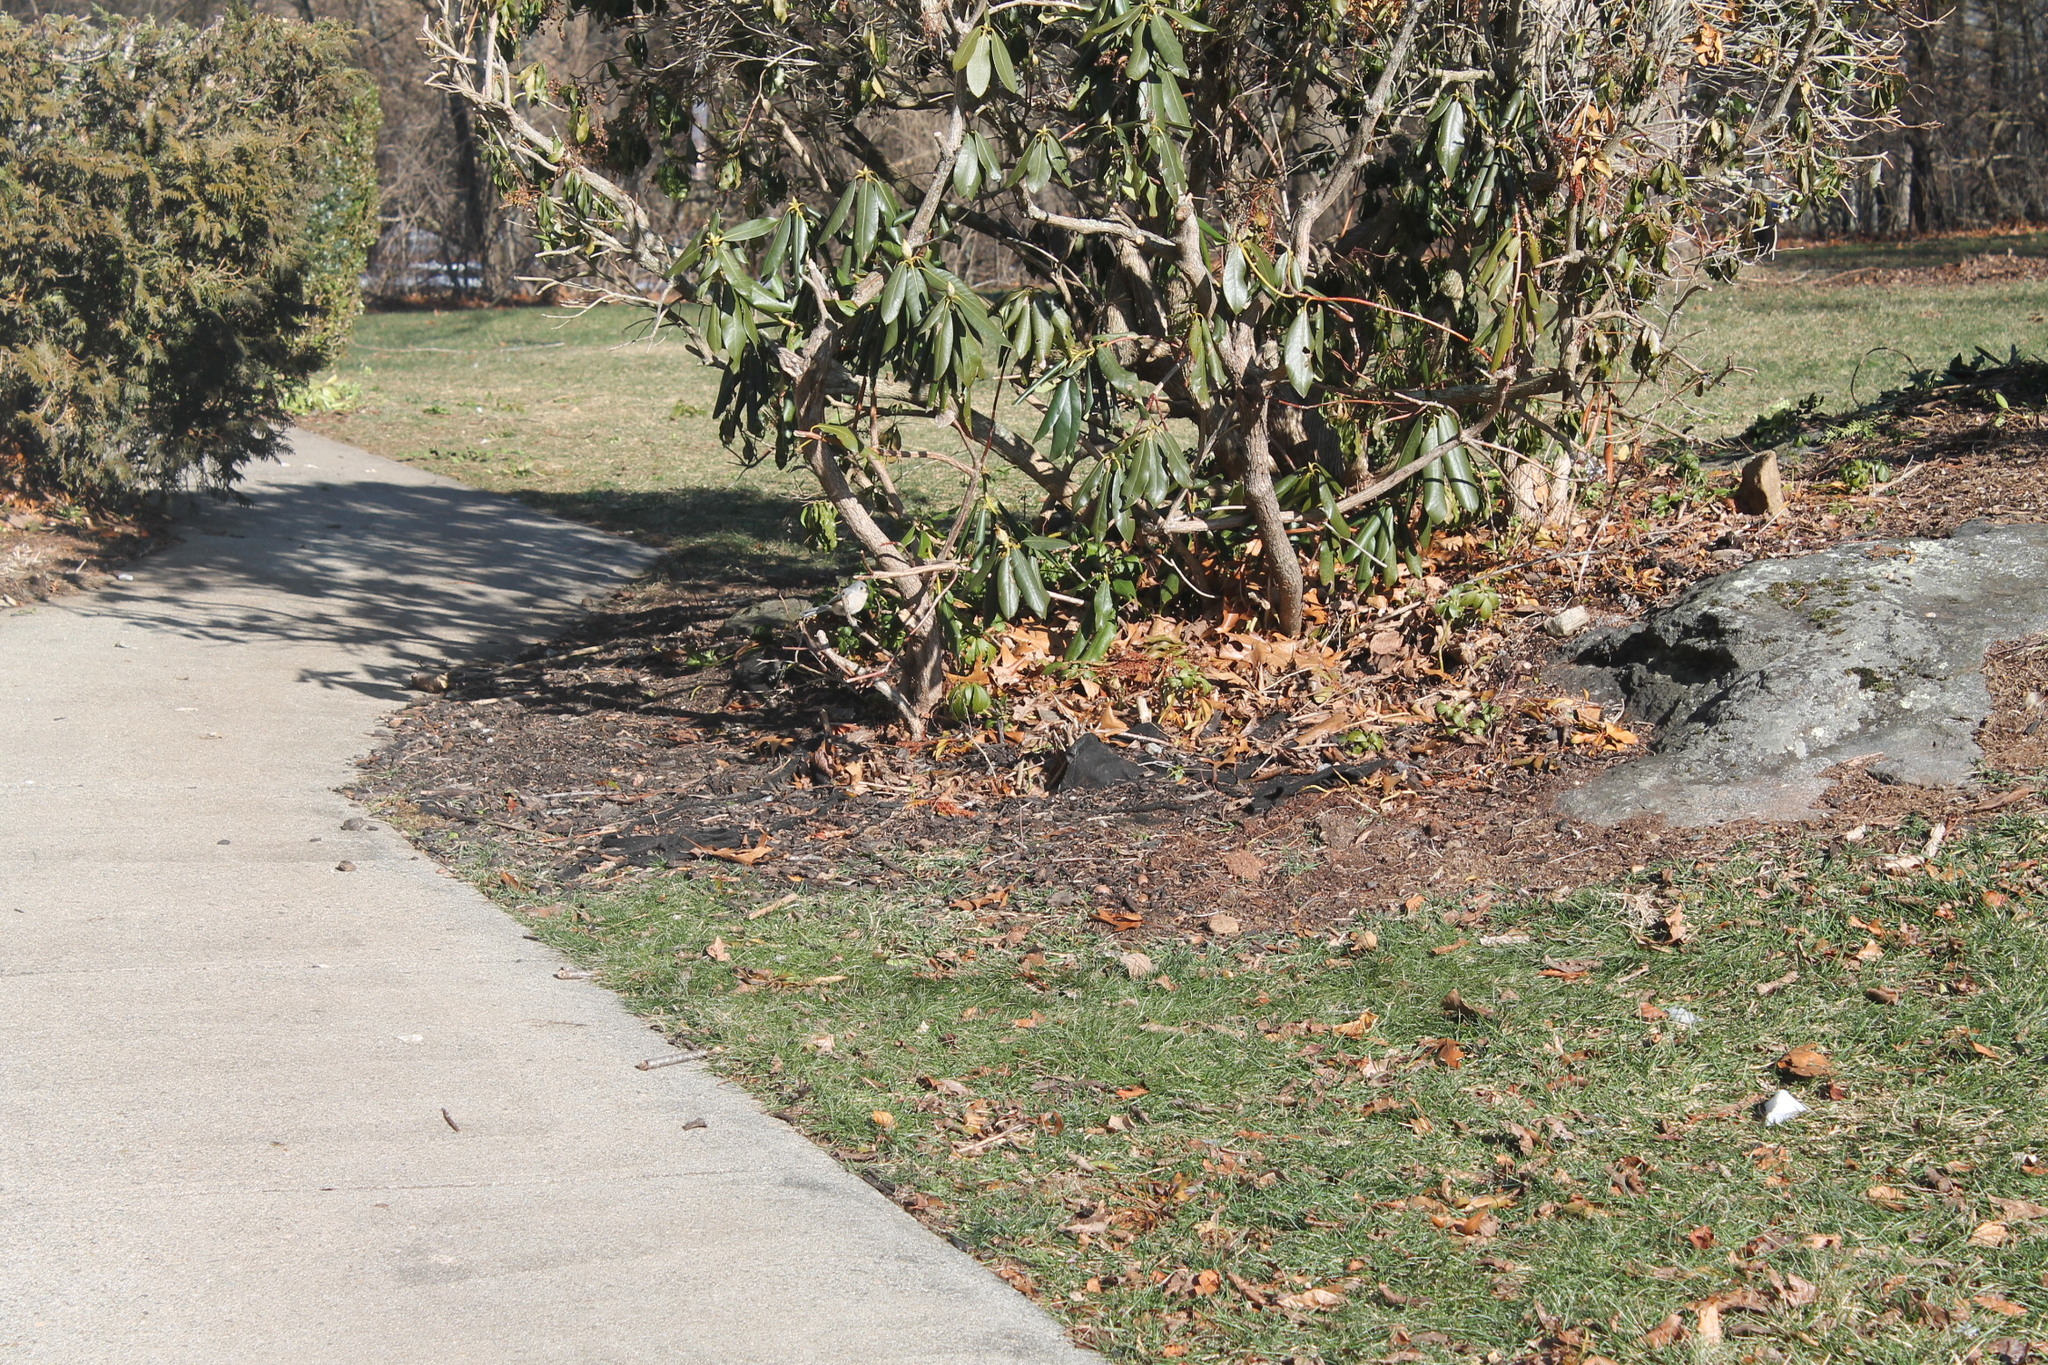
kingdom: Animalia
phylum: Chordata
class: Aves
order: Passeriformes
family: Paridae
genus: Baeolophus
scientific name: Baeolophus bicolor
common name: Tufted titmouse
